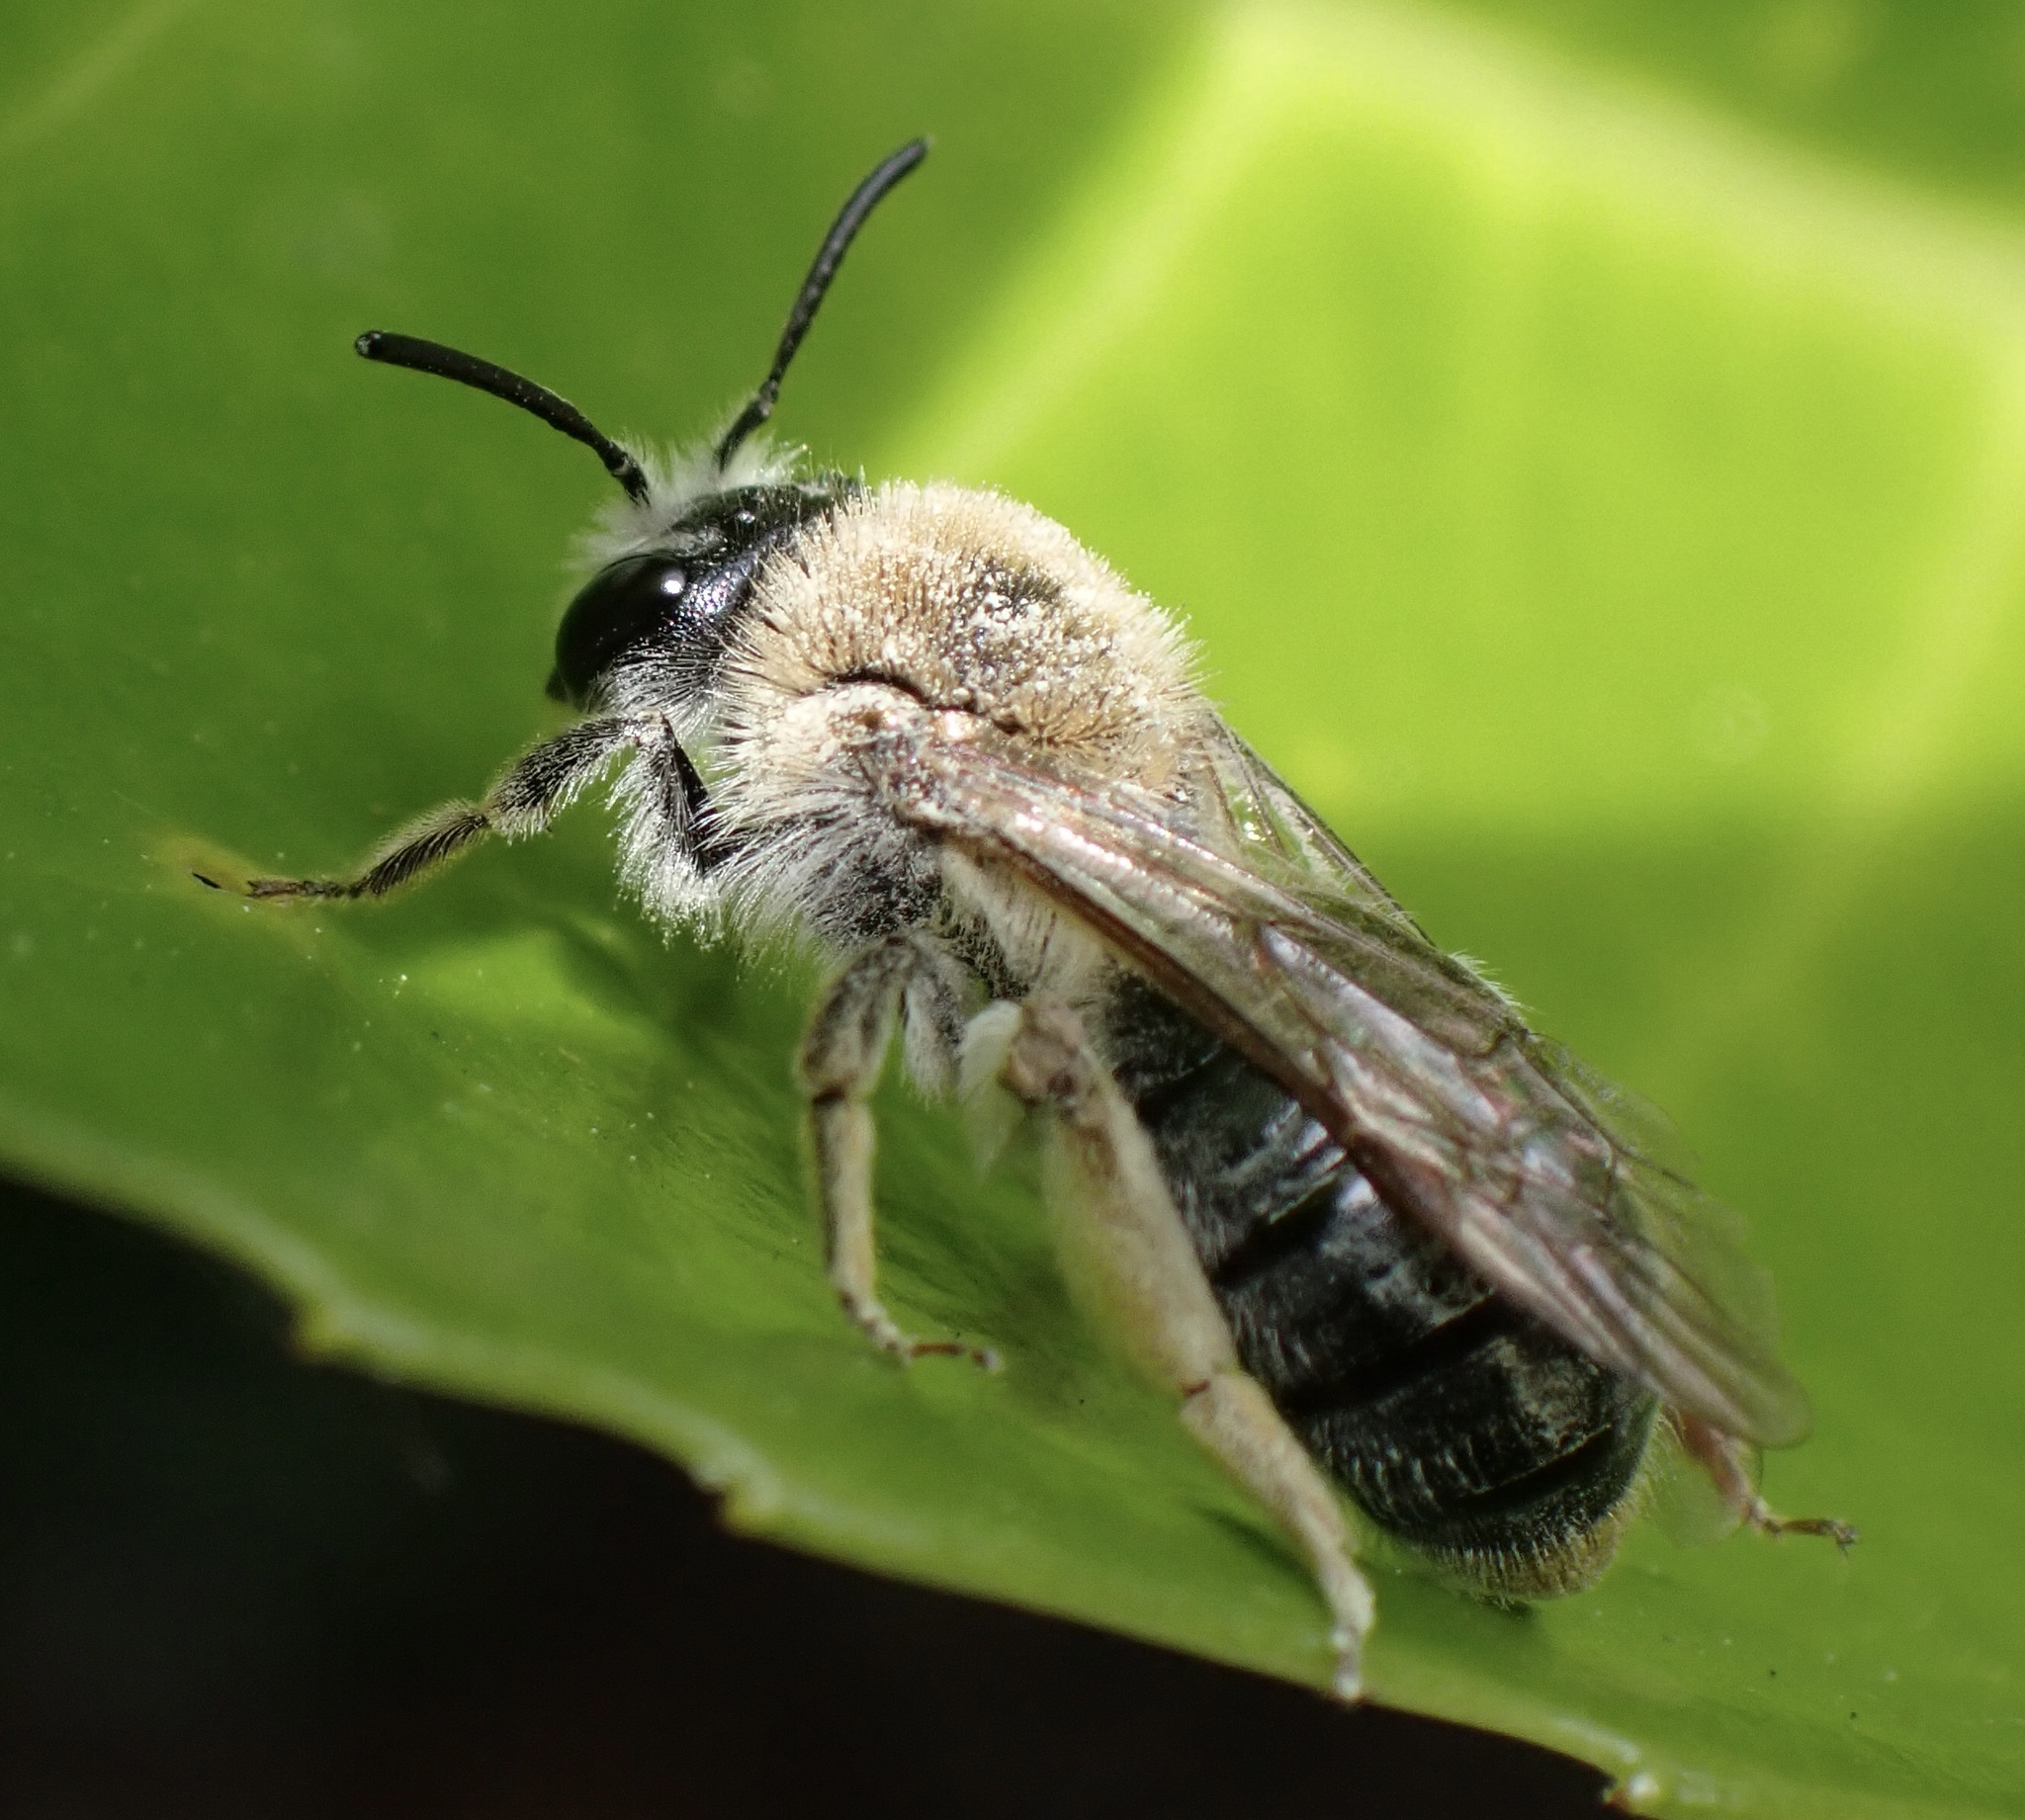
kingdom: Animalia
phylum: Arthropoda
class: Insecta
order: Hymenoptera
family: Andrenidae
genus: Andrena
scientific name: Andrena haemorrhoa
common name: Early mining bee
